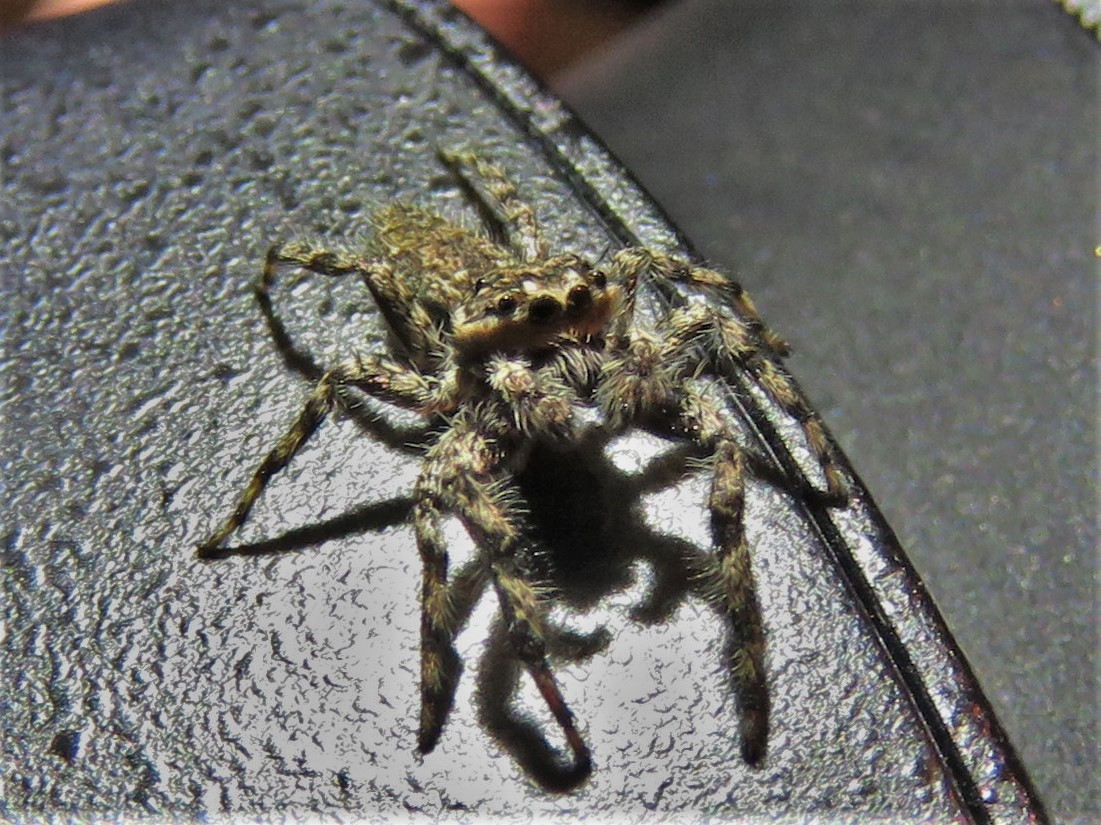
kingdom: Animalia
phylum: Arthropoda
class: Arachnida
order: Araneae
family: Salticidae
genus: Platycryptus
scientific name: Platycryptus undatus
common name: Tan jumping spider
